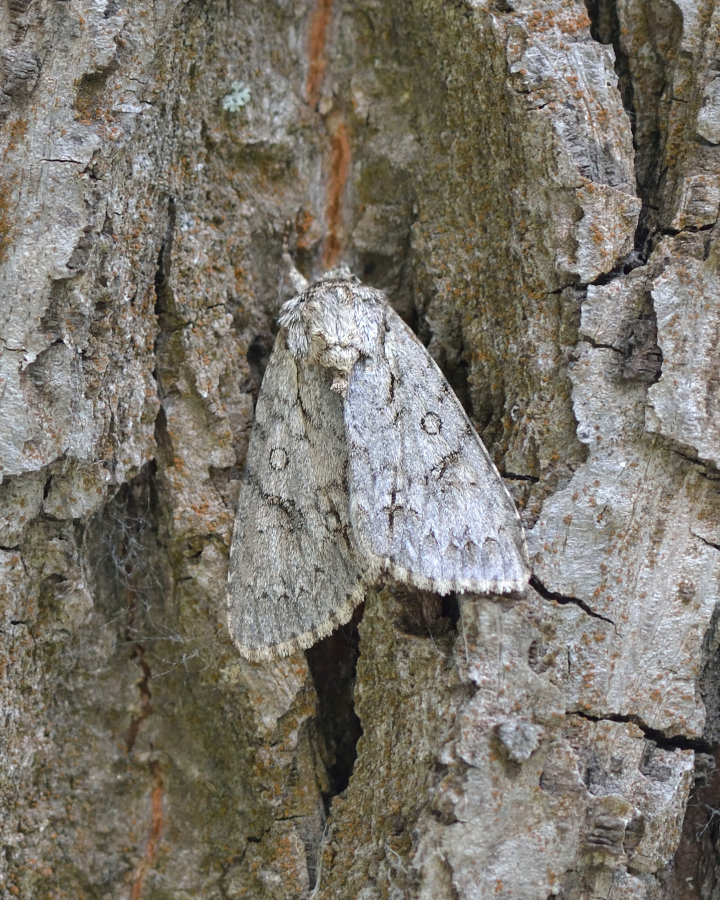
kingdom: Animalia
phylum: Arthropoda
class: Insecta
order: Lepidoptera
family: Noctuidae
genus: Acronicta
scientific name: Acronicta aceris
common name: Sycamore
